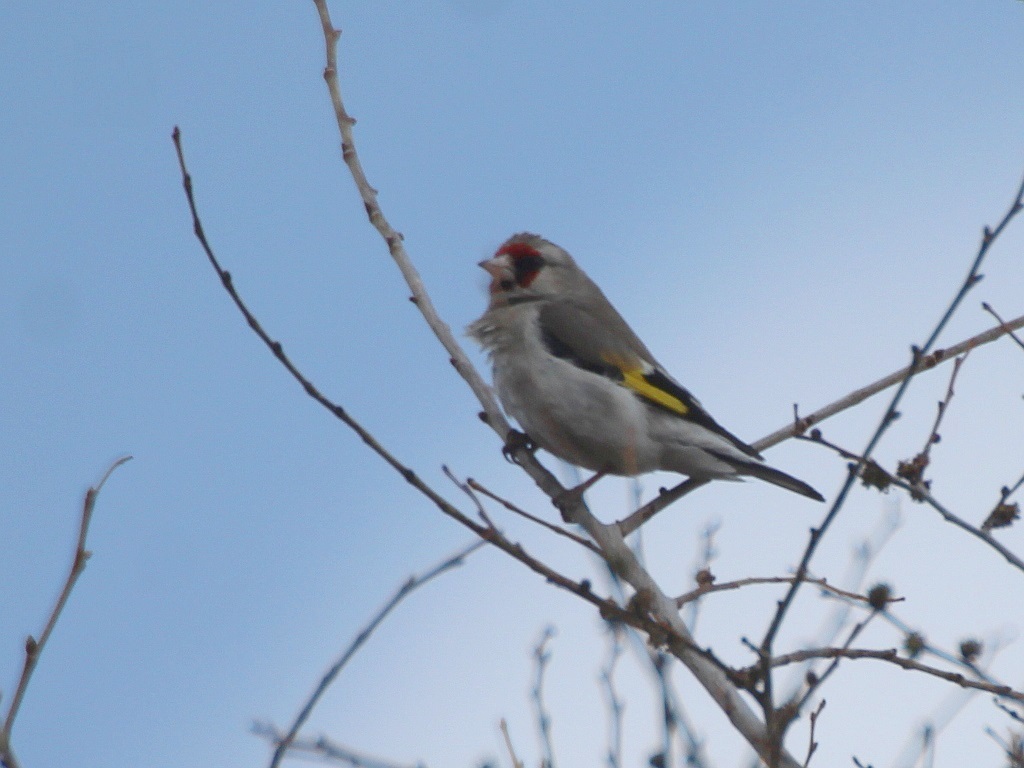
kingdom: Animalia
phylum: Chordata
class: Aves
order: Passeriformes
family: Fringillidae
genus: Carduelis
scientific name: Carduelis carduelis
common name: European goldfinch
